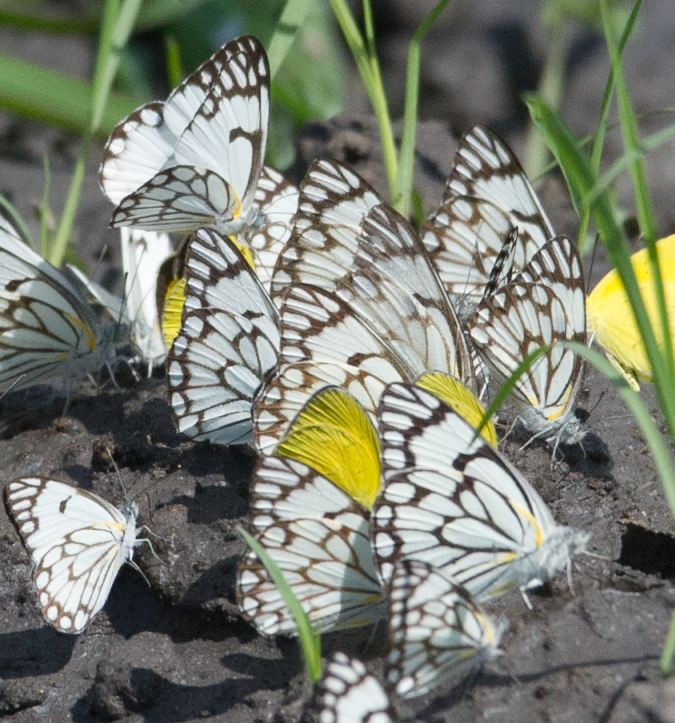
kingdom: Animalia
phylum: Arthropoda
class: Insecta
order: Lepidoptera
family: Pieridae
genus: Belenois
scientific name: Belenois aurota
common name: Brown-veined white
